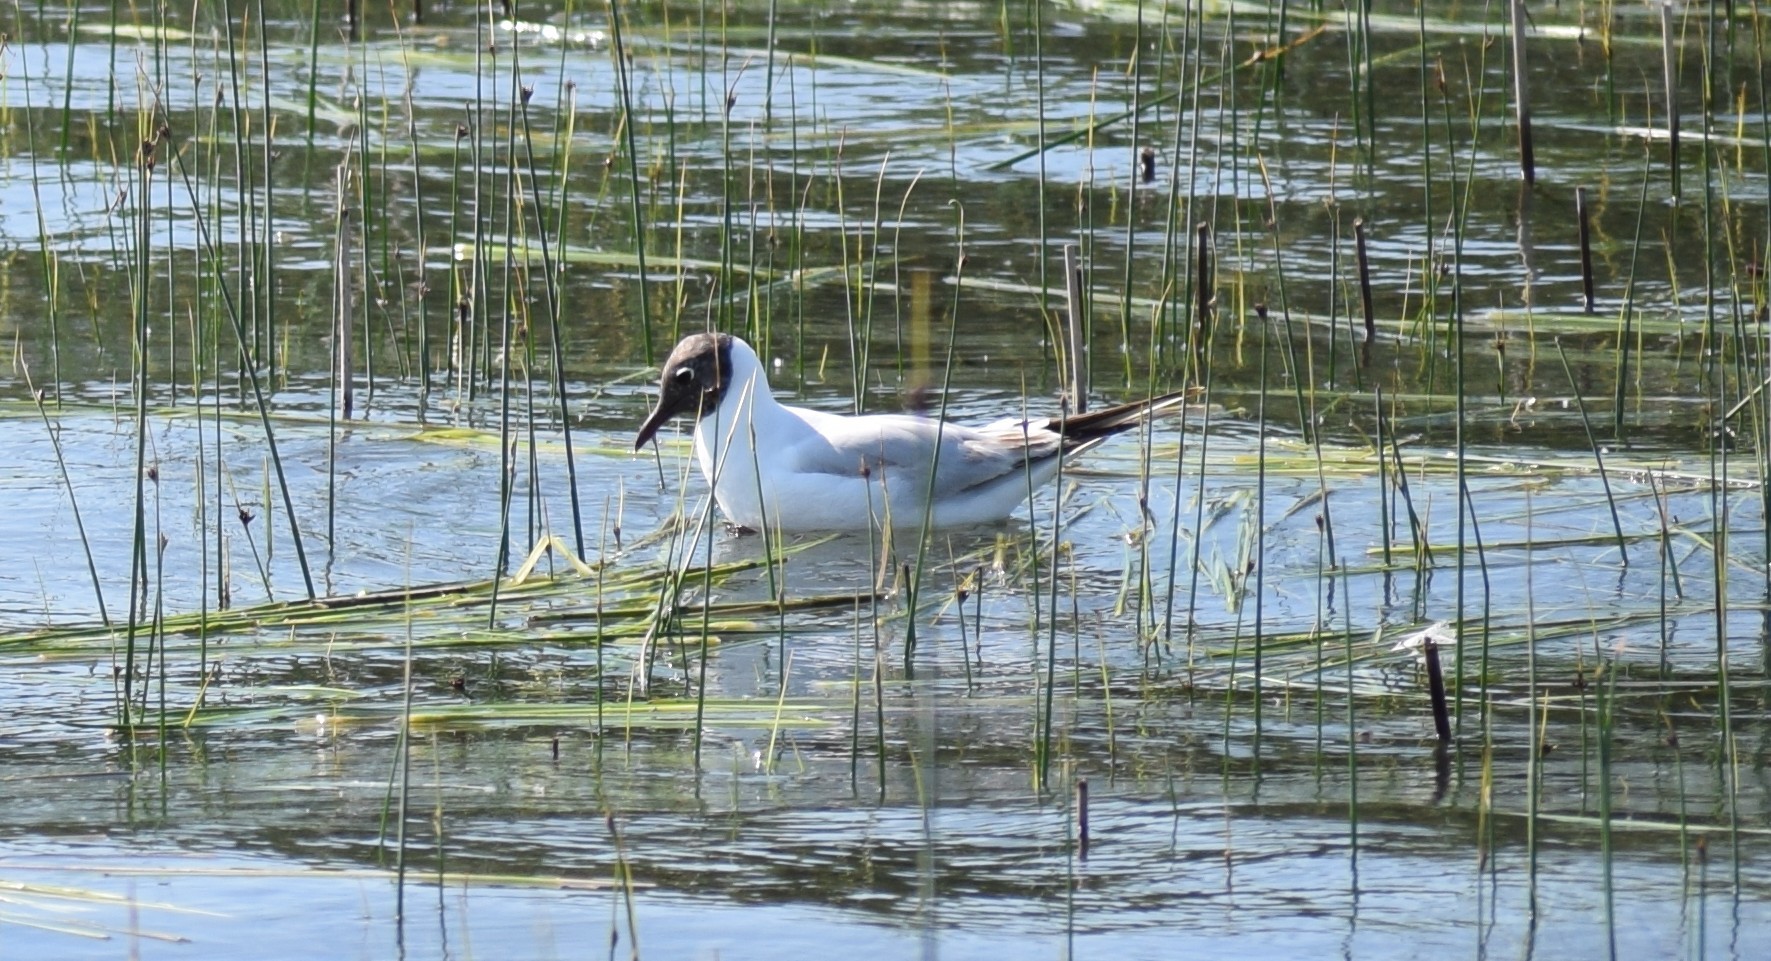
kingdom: Animalia
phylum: Chordata
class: Aves
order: Charadriiformes
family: Laridae
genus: Chroicocephalus
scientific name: Chroicocephalus ridibundus
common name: Black-headed gull
